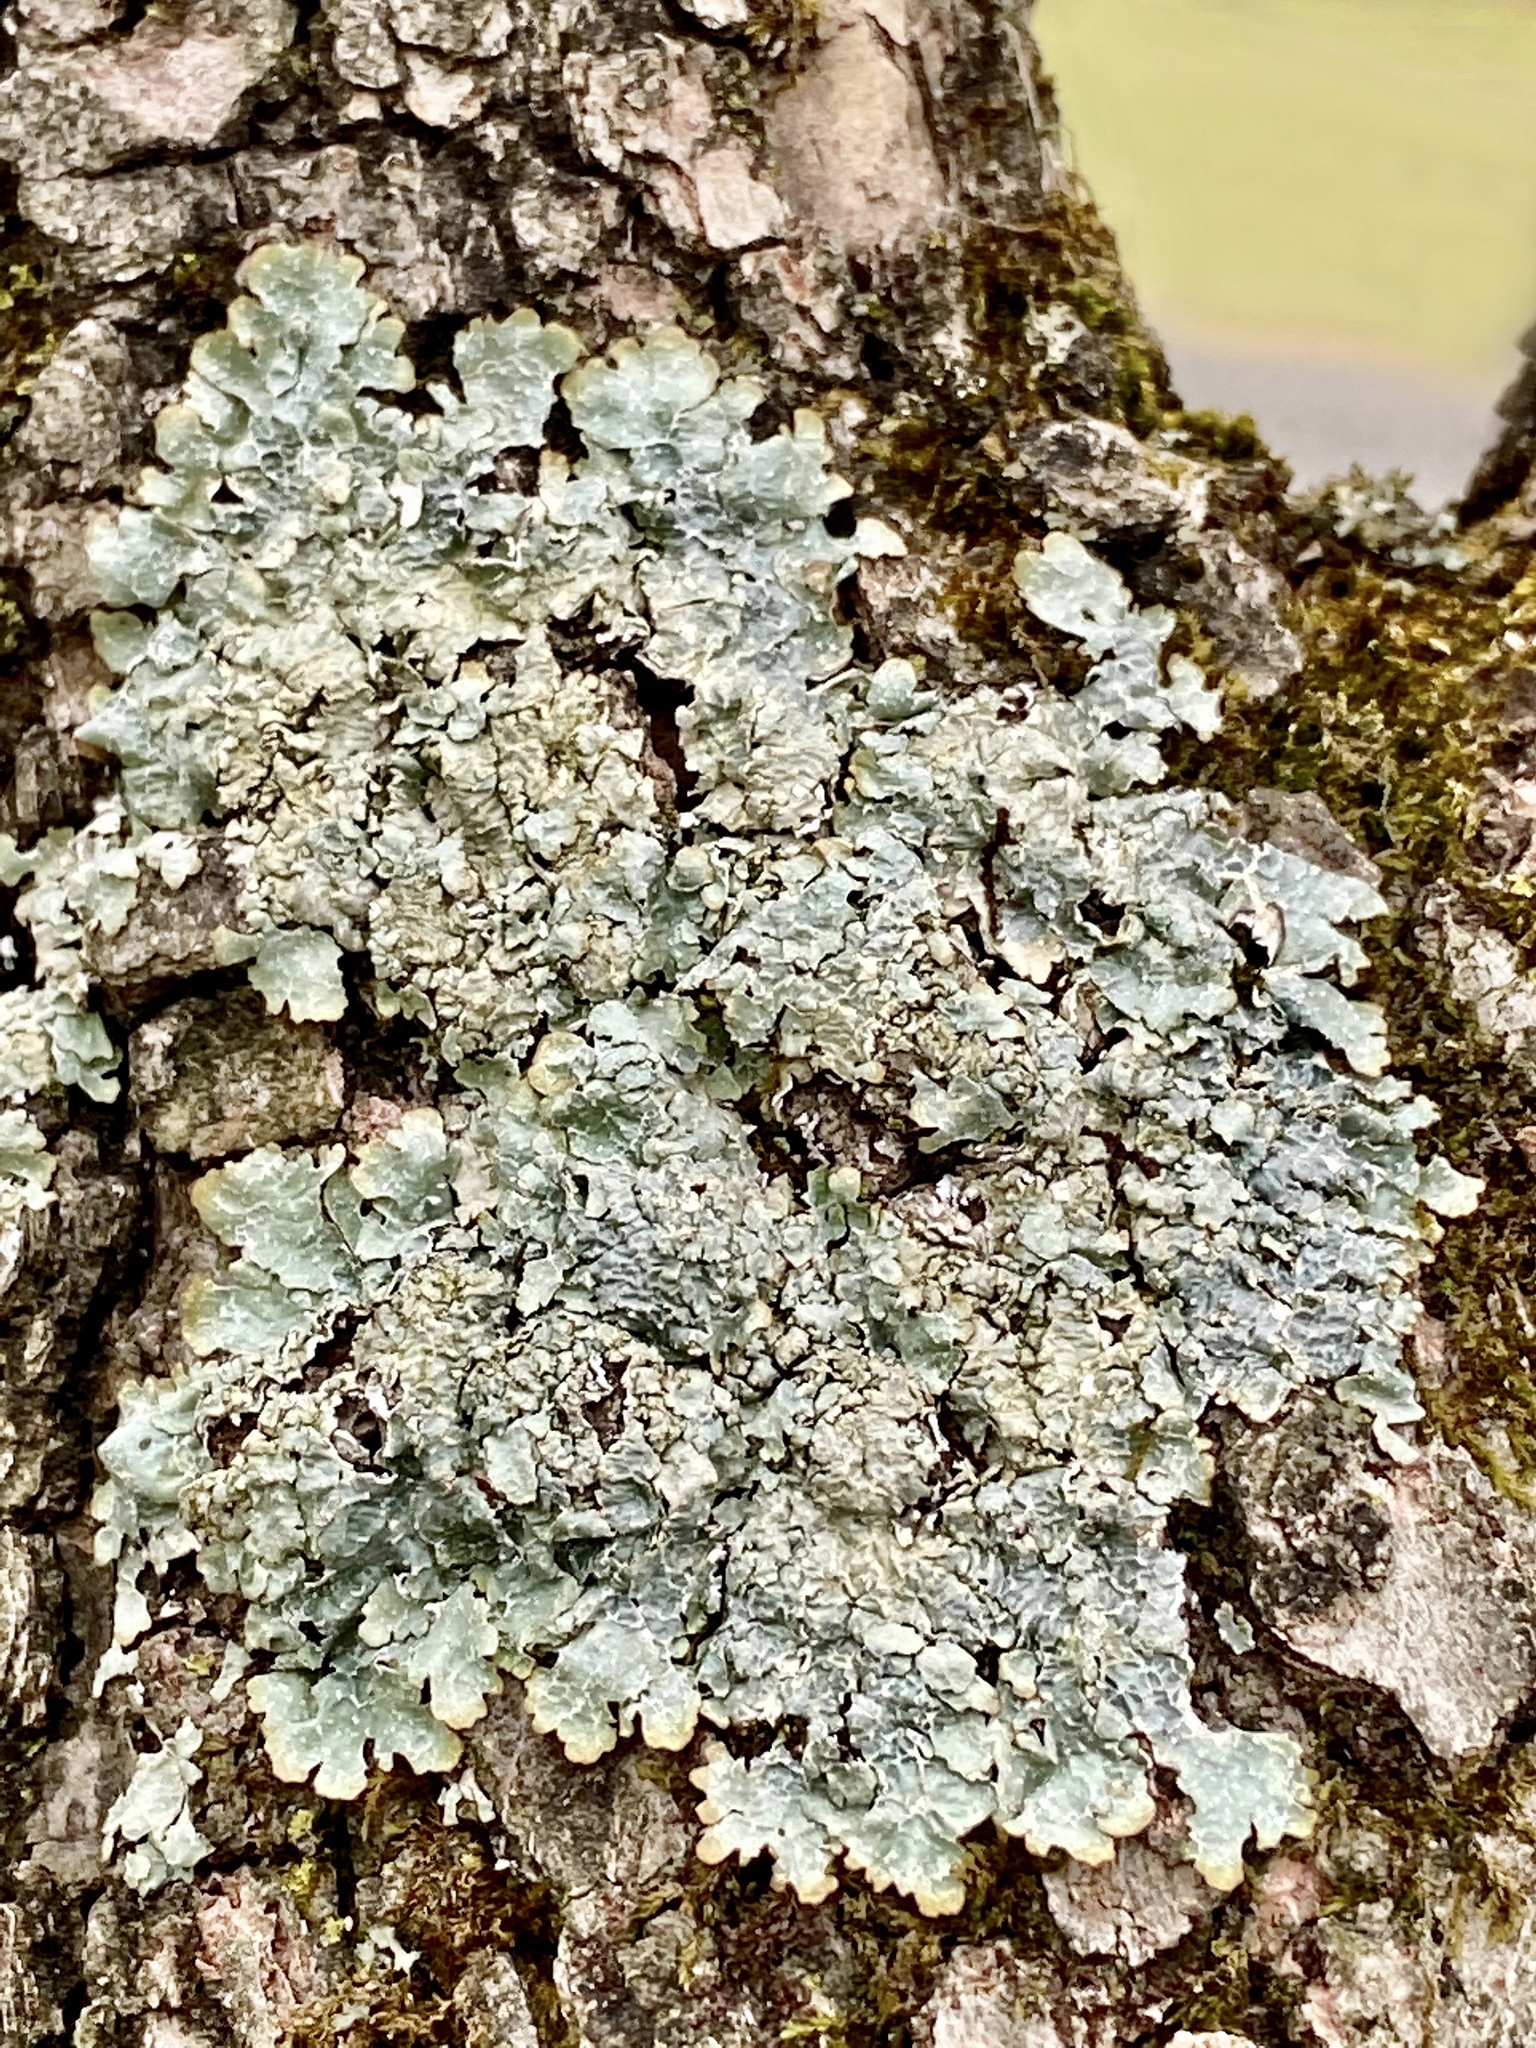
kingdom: Fungi
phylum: Ascomycota
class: Lecanoromycetes
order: Lecanorales
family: Parmeliaceae
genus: Punctelia
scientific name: Punctelia rudecta
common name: Rough speckled shield lichen
